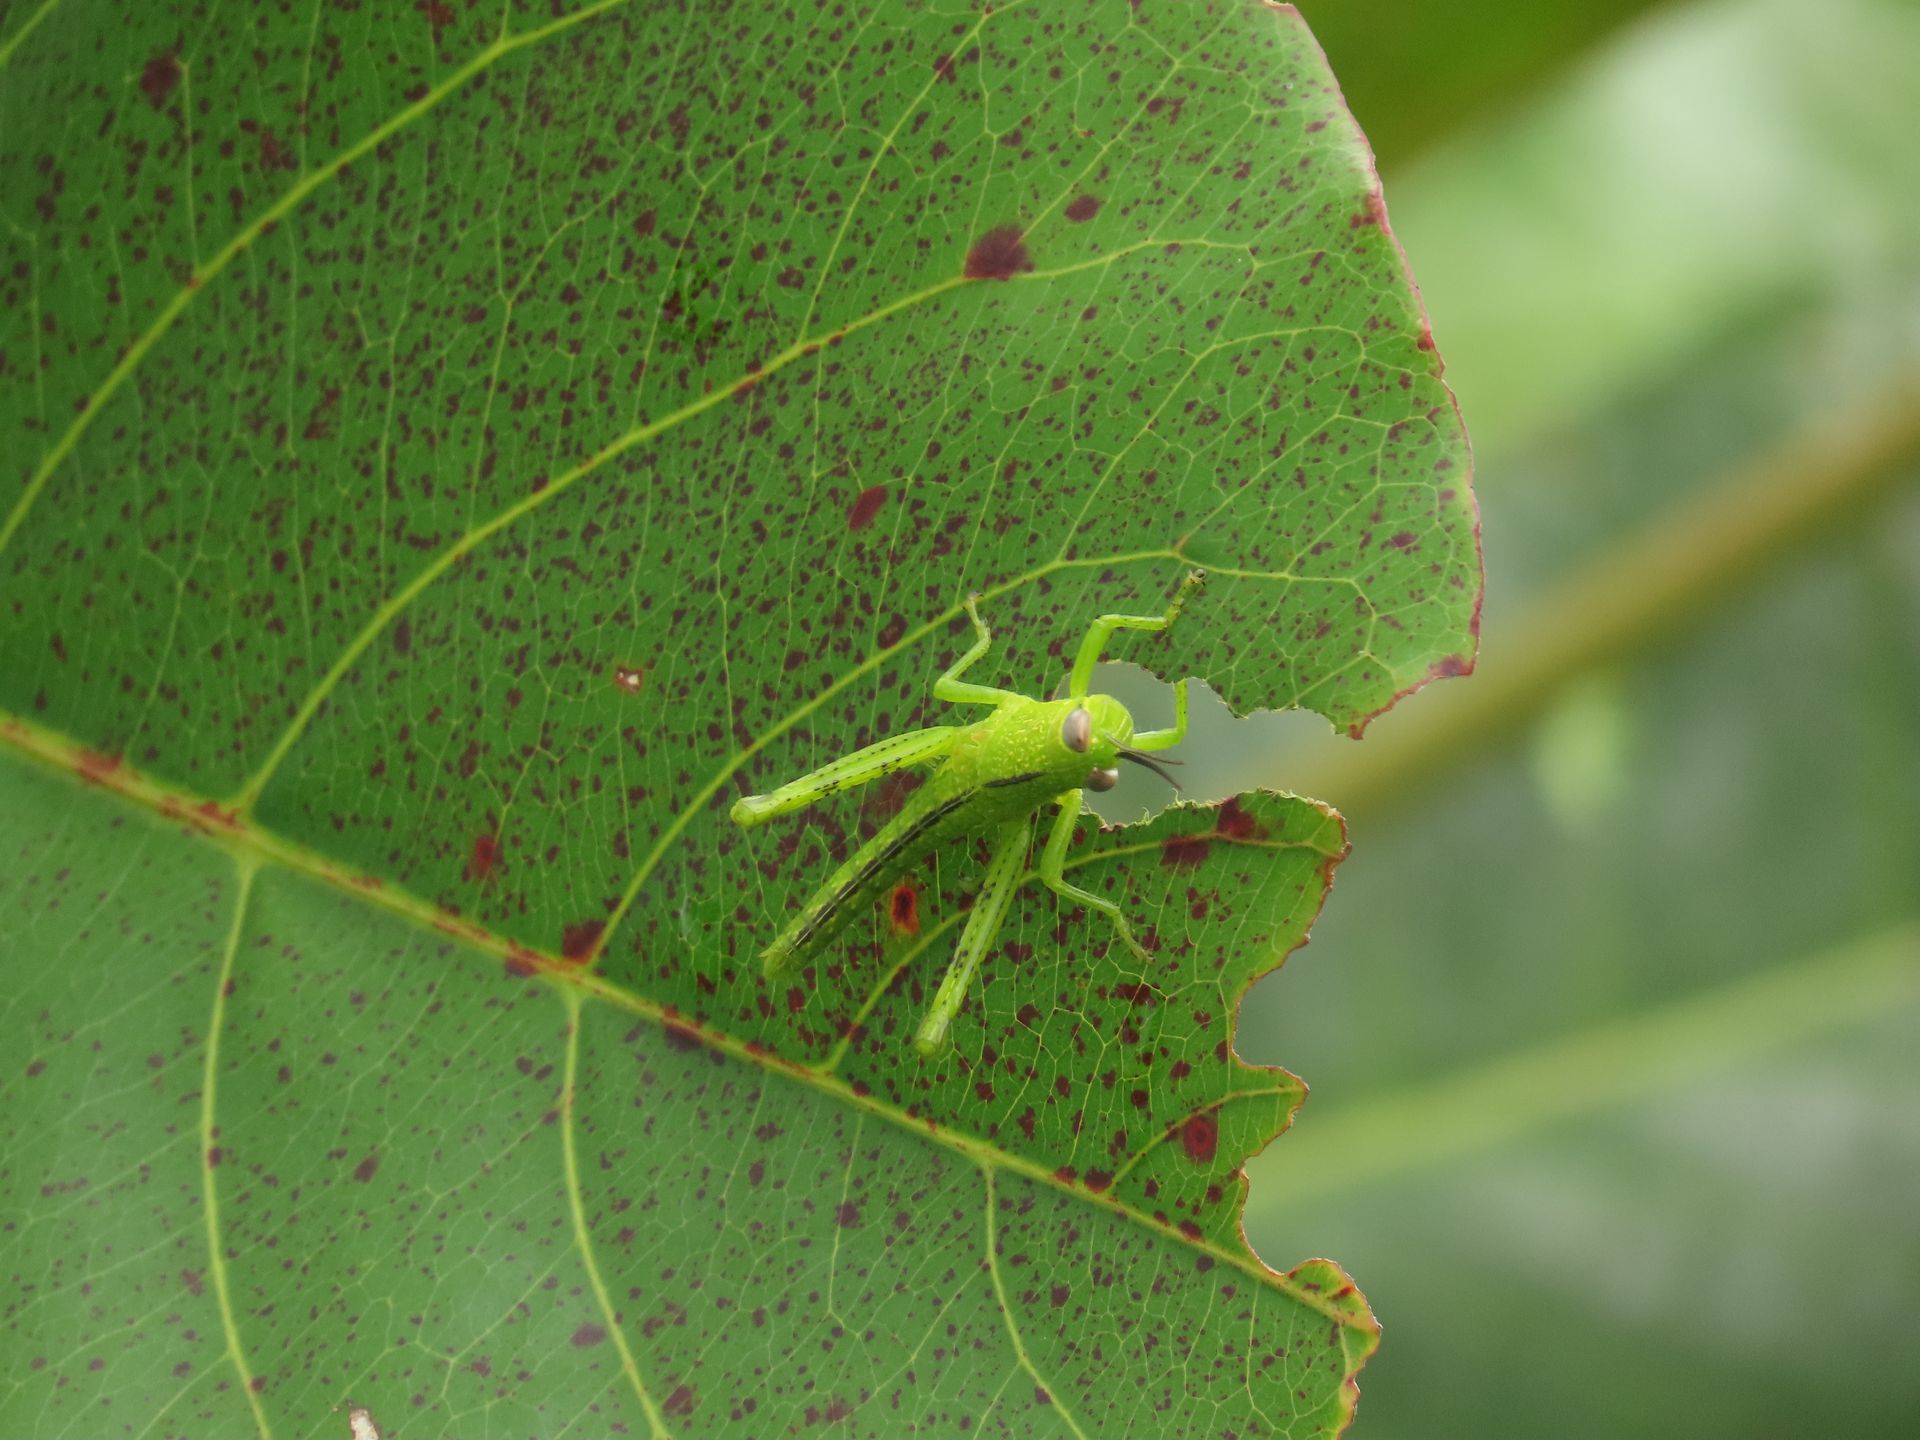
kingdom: Animalia
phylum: Arthropoda
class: Insecta
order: Orthoptera
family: Acrididae
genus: Valanga
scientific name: Valanga irregularis
